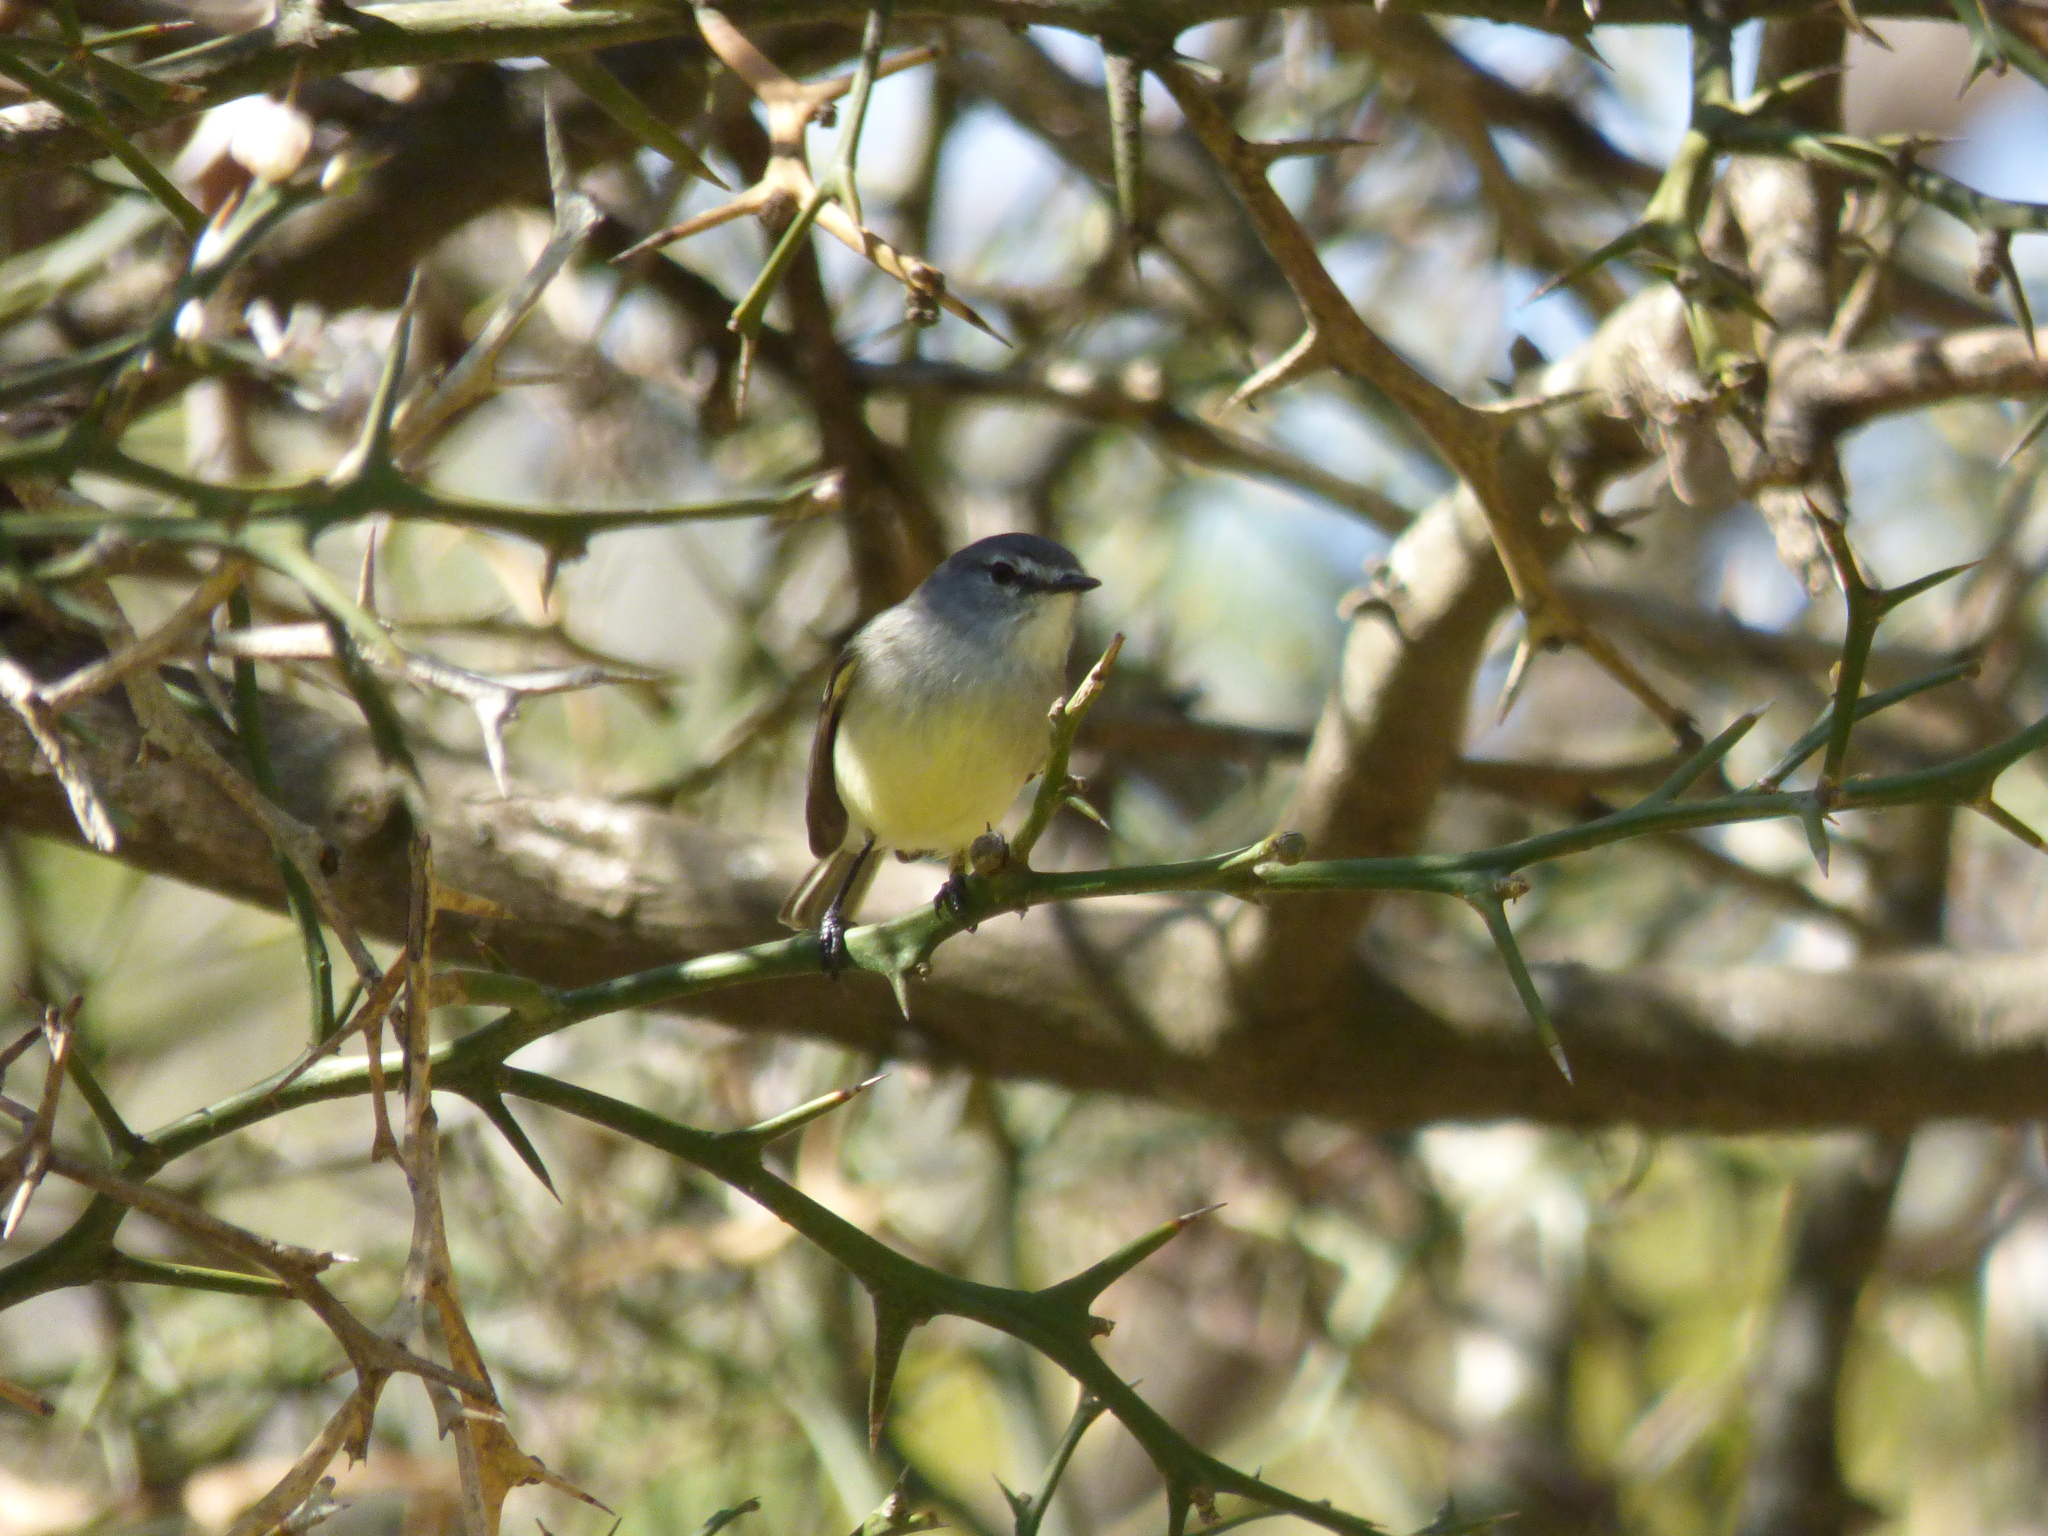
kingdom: Animalia
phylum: Chordata
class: Aves
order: Passeriformes
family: Tyrannidae
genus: Serpophaga
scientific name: Serpophaga subcristata
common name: White-crested tyrannulet
